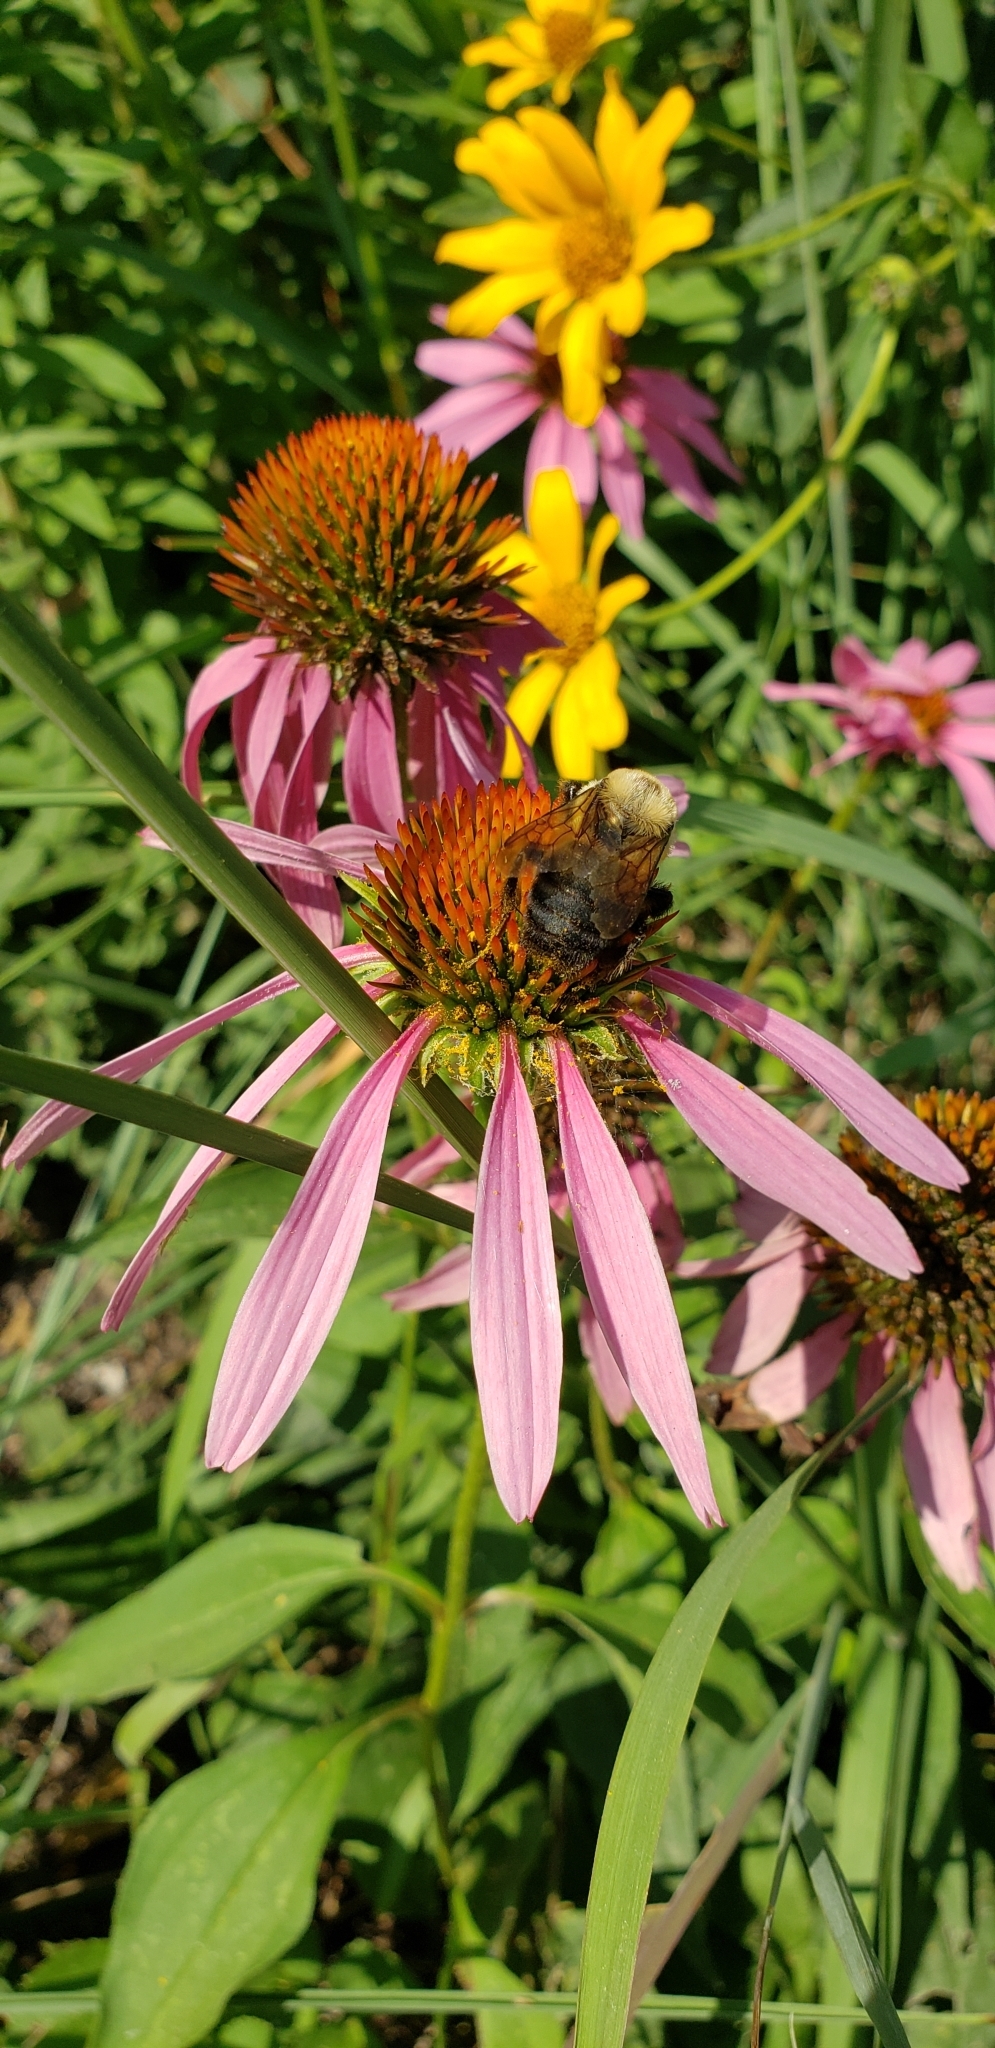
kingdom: Animalia
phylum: Arthropoda
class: Insecta
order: Hymenoptera
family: Apidae
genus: Bombus
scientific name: Bombus griseocollis
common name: Brown-belted bumble bee
